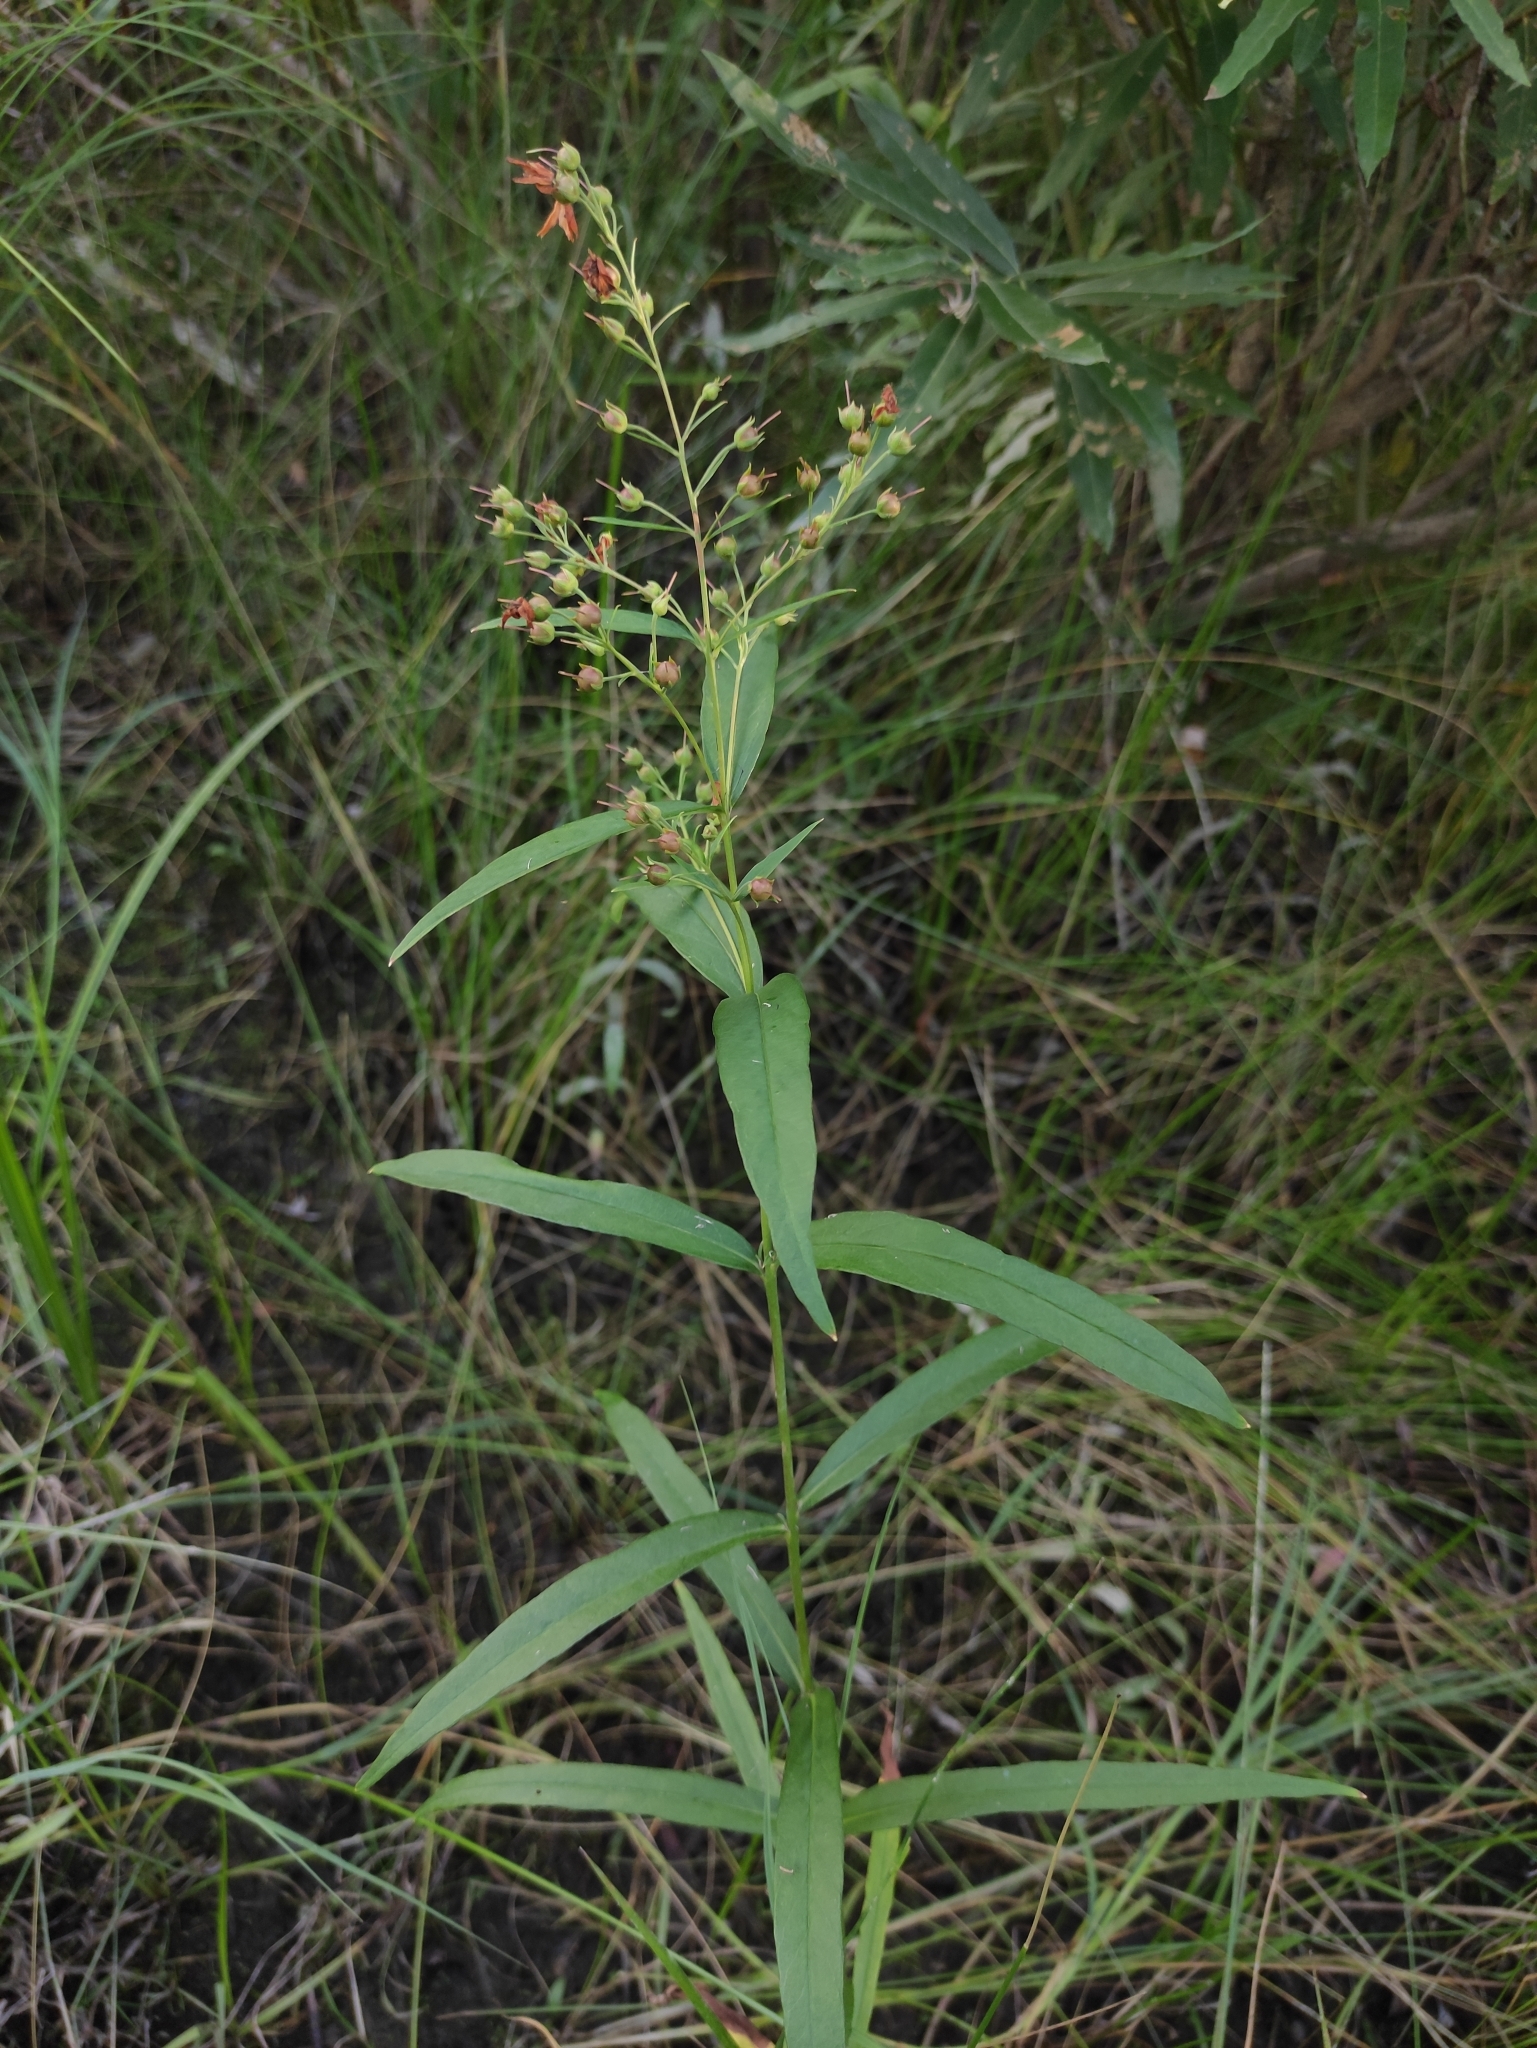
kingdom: Plantae
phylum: Tracheophyta
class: Magnoliopsida
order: Ericales
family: Primulaceae
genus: Lysimachia
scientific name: Lysimachia davurica
